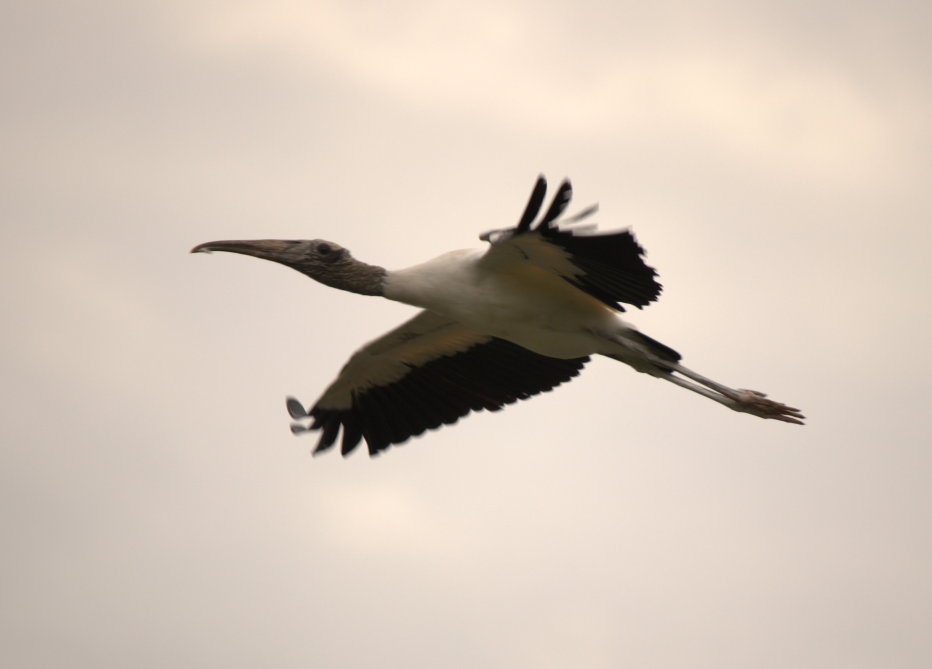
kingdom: Animalia
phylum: Chordata
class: Aves
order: Ciconiiformes
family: Ciconiidae
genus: Mycteria
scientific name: Mycteria americana
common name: Wood stork
